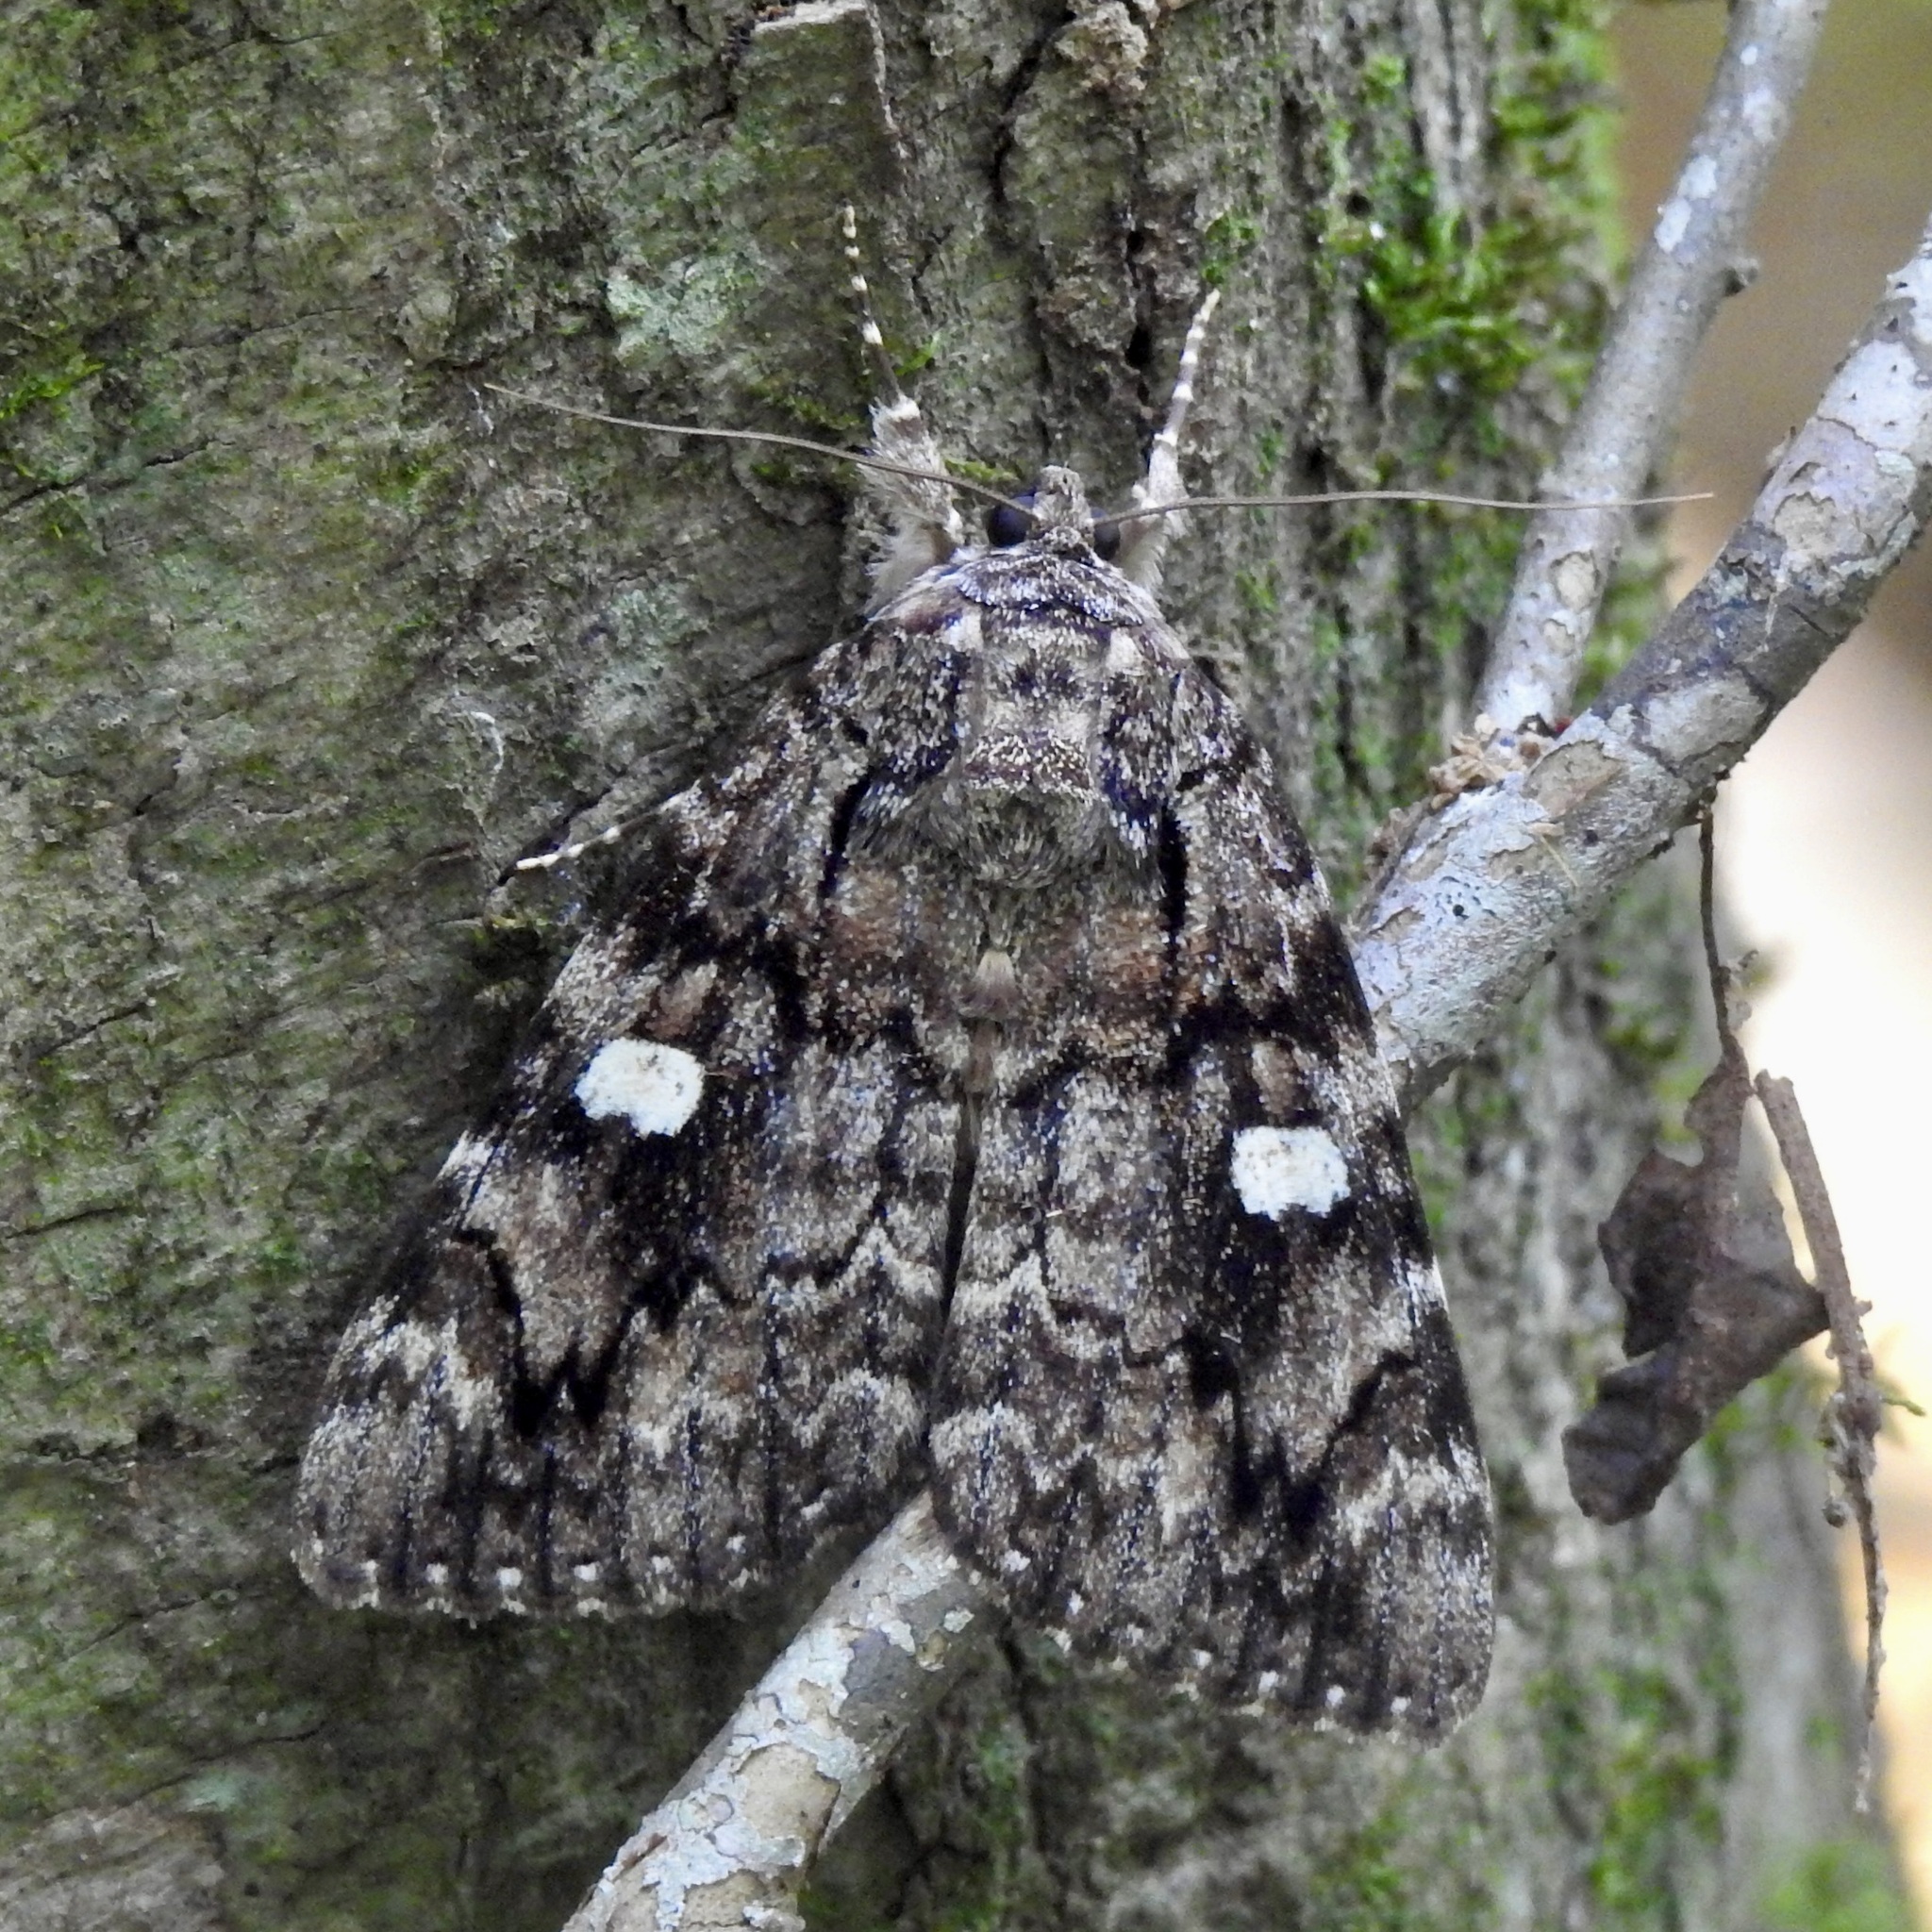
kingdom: Animalia
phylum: Arthropoda
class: Insecta
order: Lepidoptera
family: Erebidae
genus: Catocala
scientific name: Catocala ilia
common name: Ilia underwing
